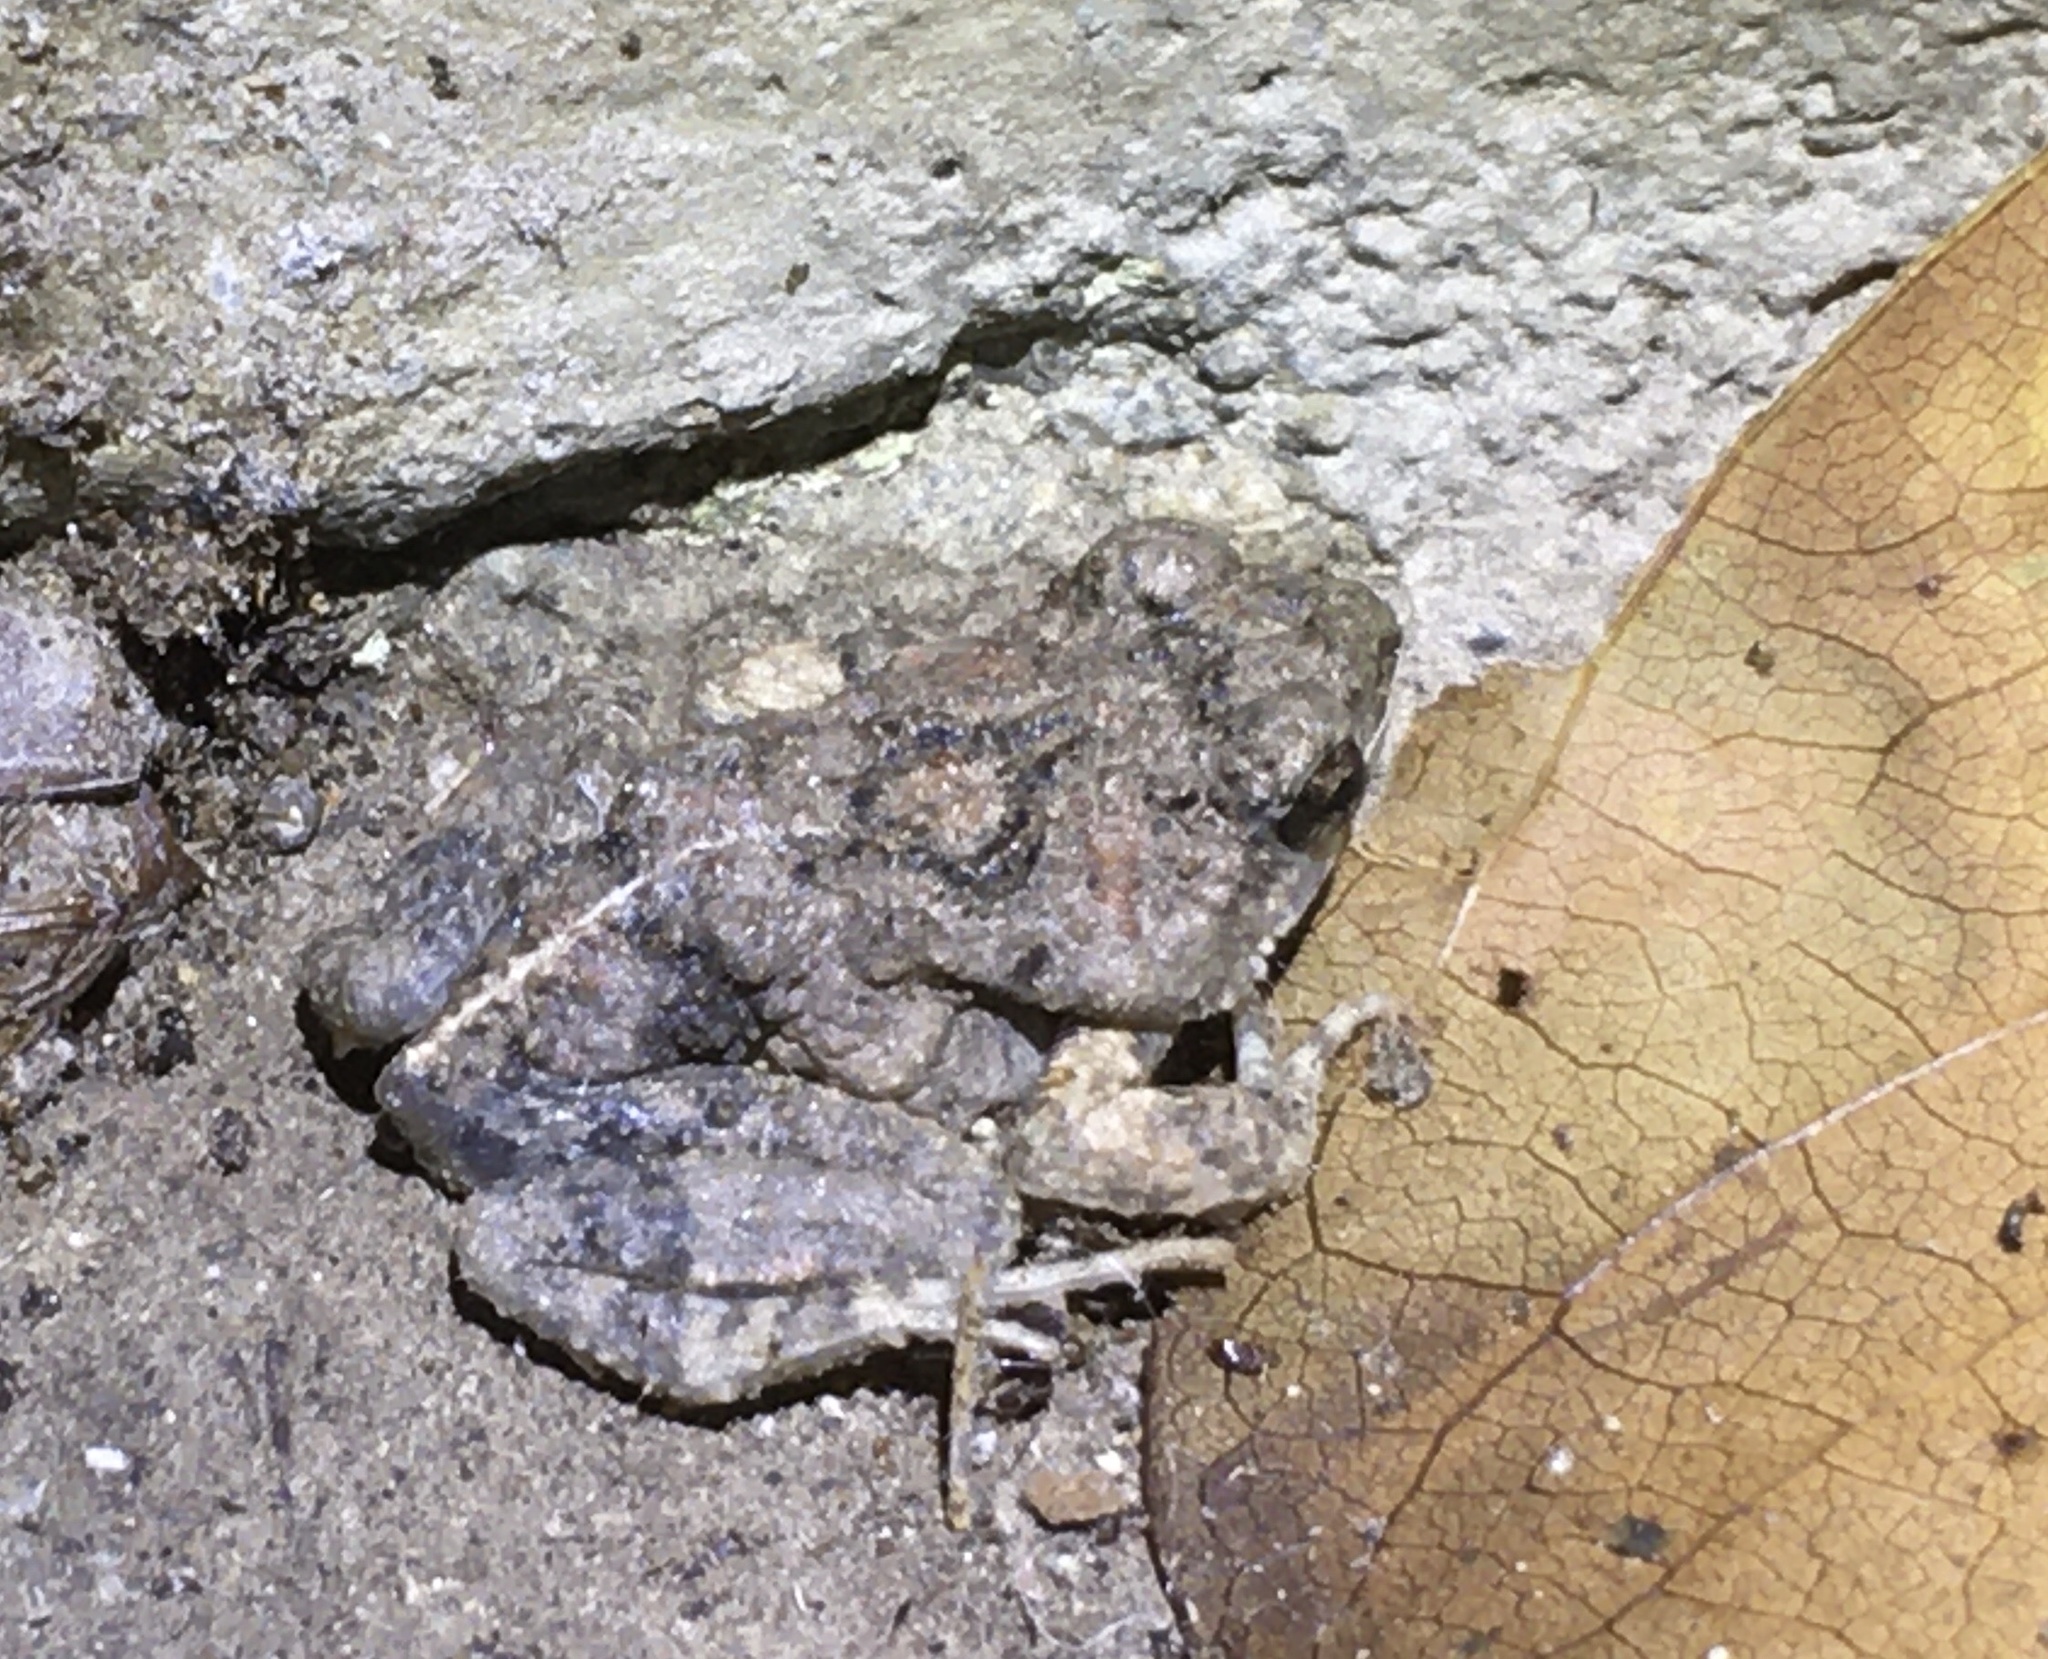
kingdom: Animalia
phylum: Chordata
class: Amphibia
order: Anura
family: Leptodactylidae
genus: Engystomops
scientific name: Engystomops pustulosus
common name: Tungara frog
